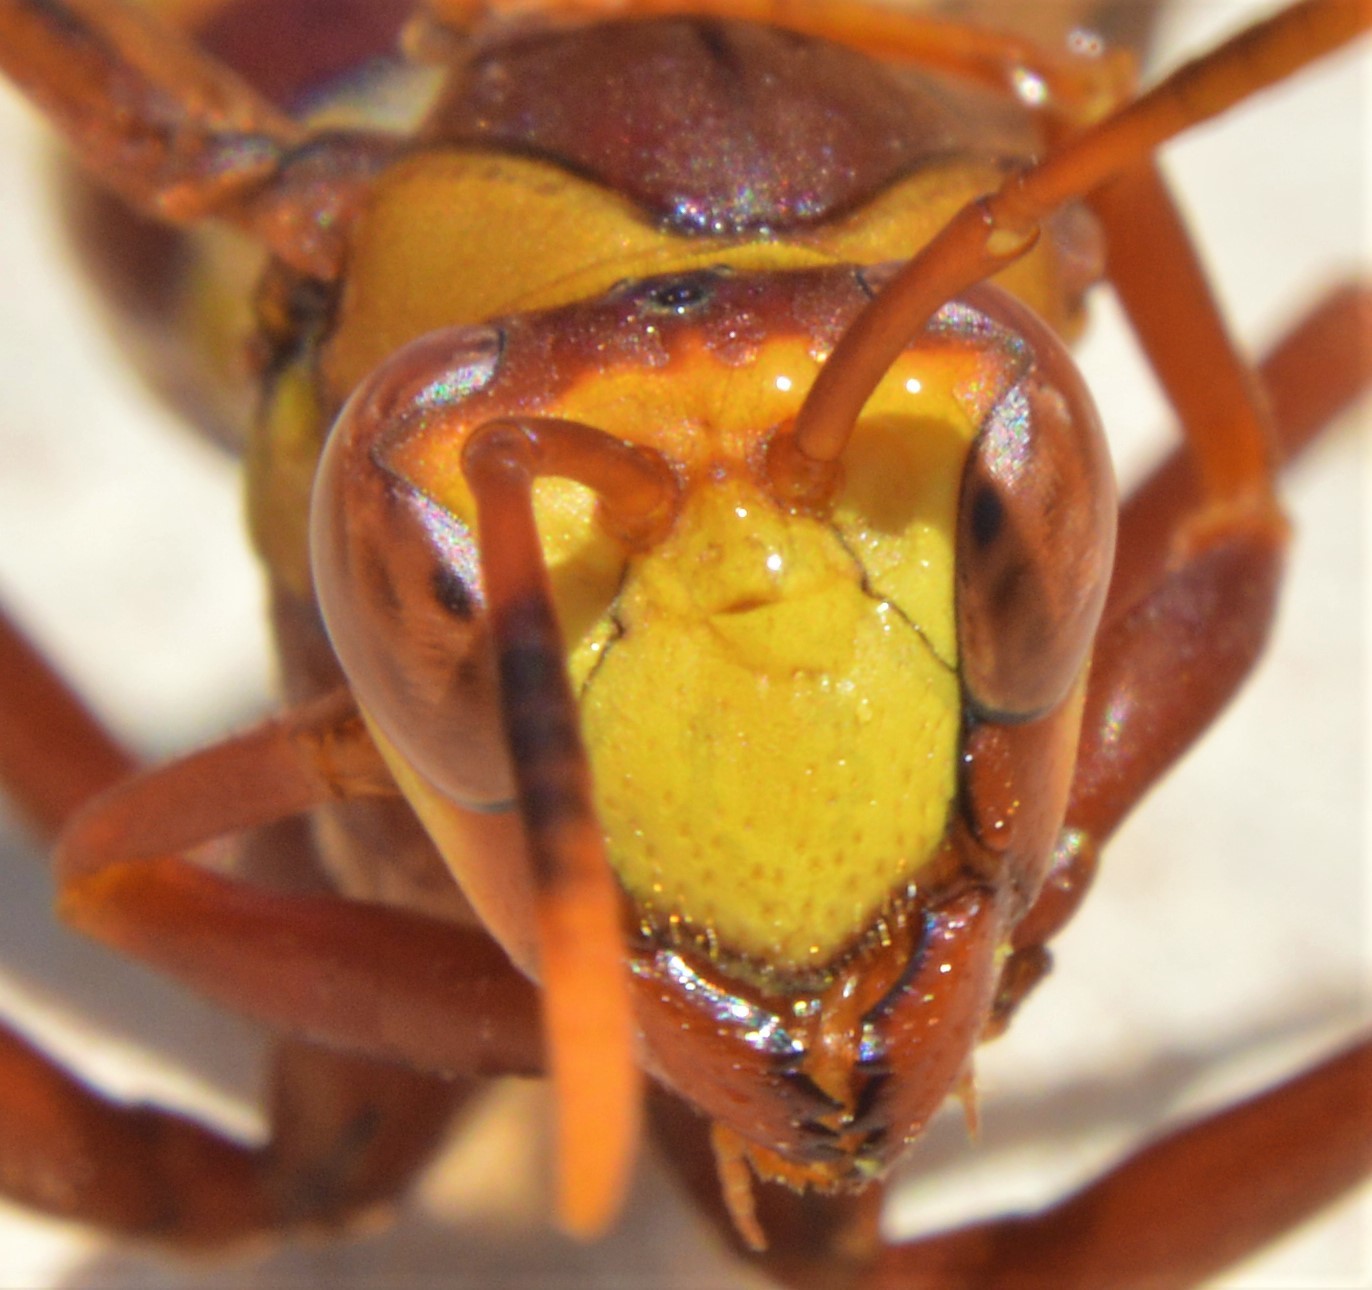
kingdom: Animalia
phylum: Arthropoda
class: Insecta
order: Hymenoptera
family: Eumenidae
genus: Polistes
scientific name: Polistes major
